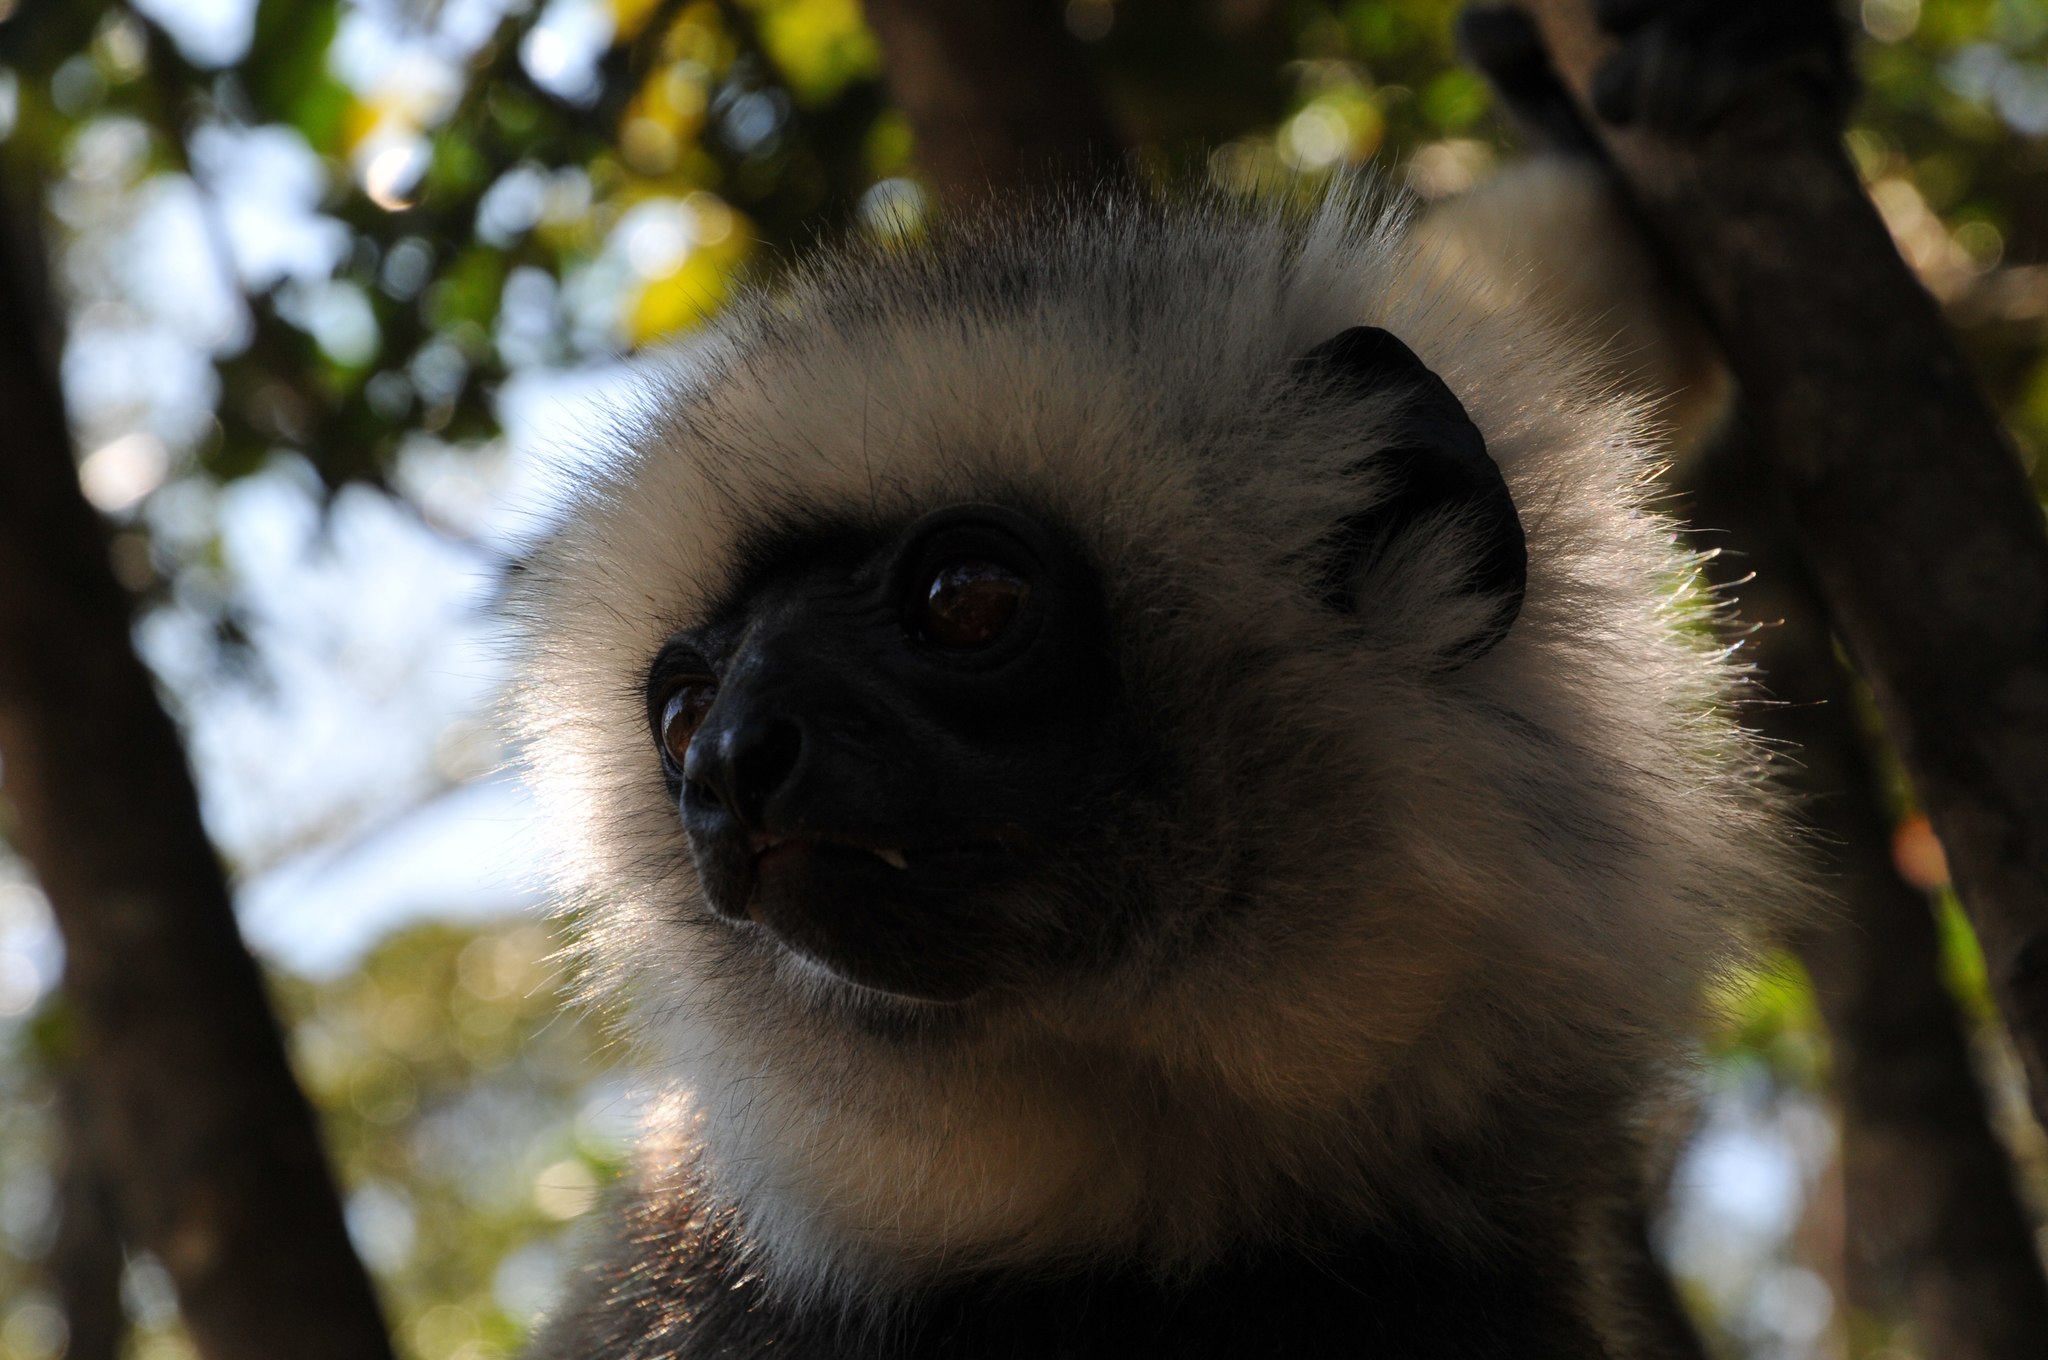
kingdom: Animalia
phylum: Chordata
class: Mammalia
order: Primates
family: Indriidae
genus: Propithecus
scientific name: Propithecus diadema
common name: Diademed sifaka
